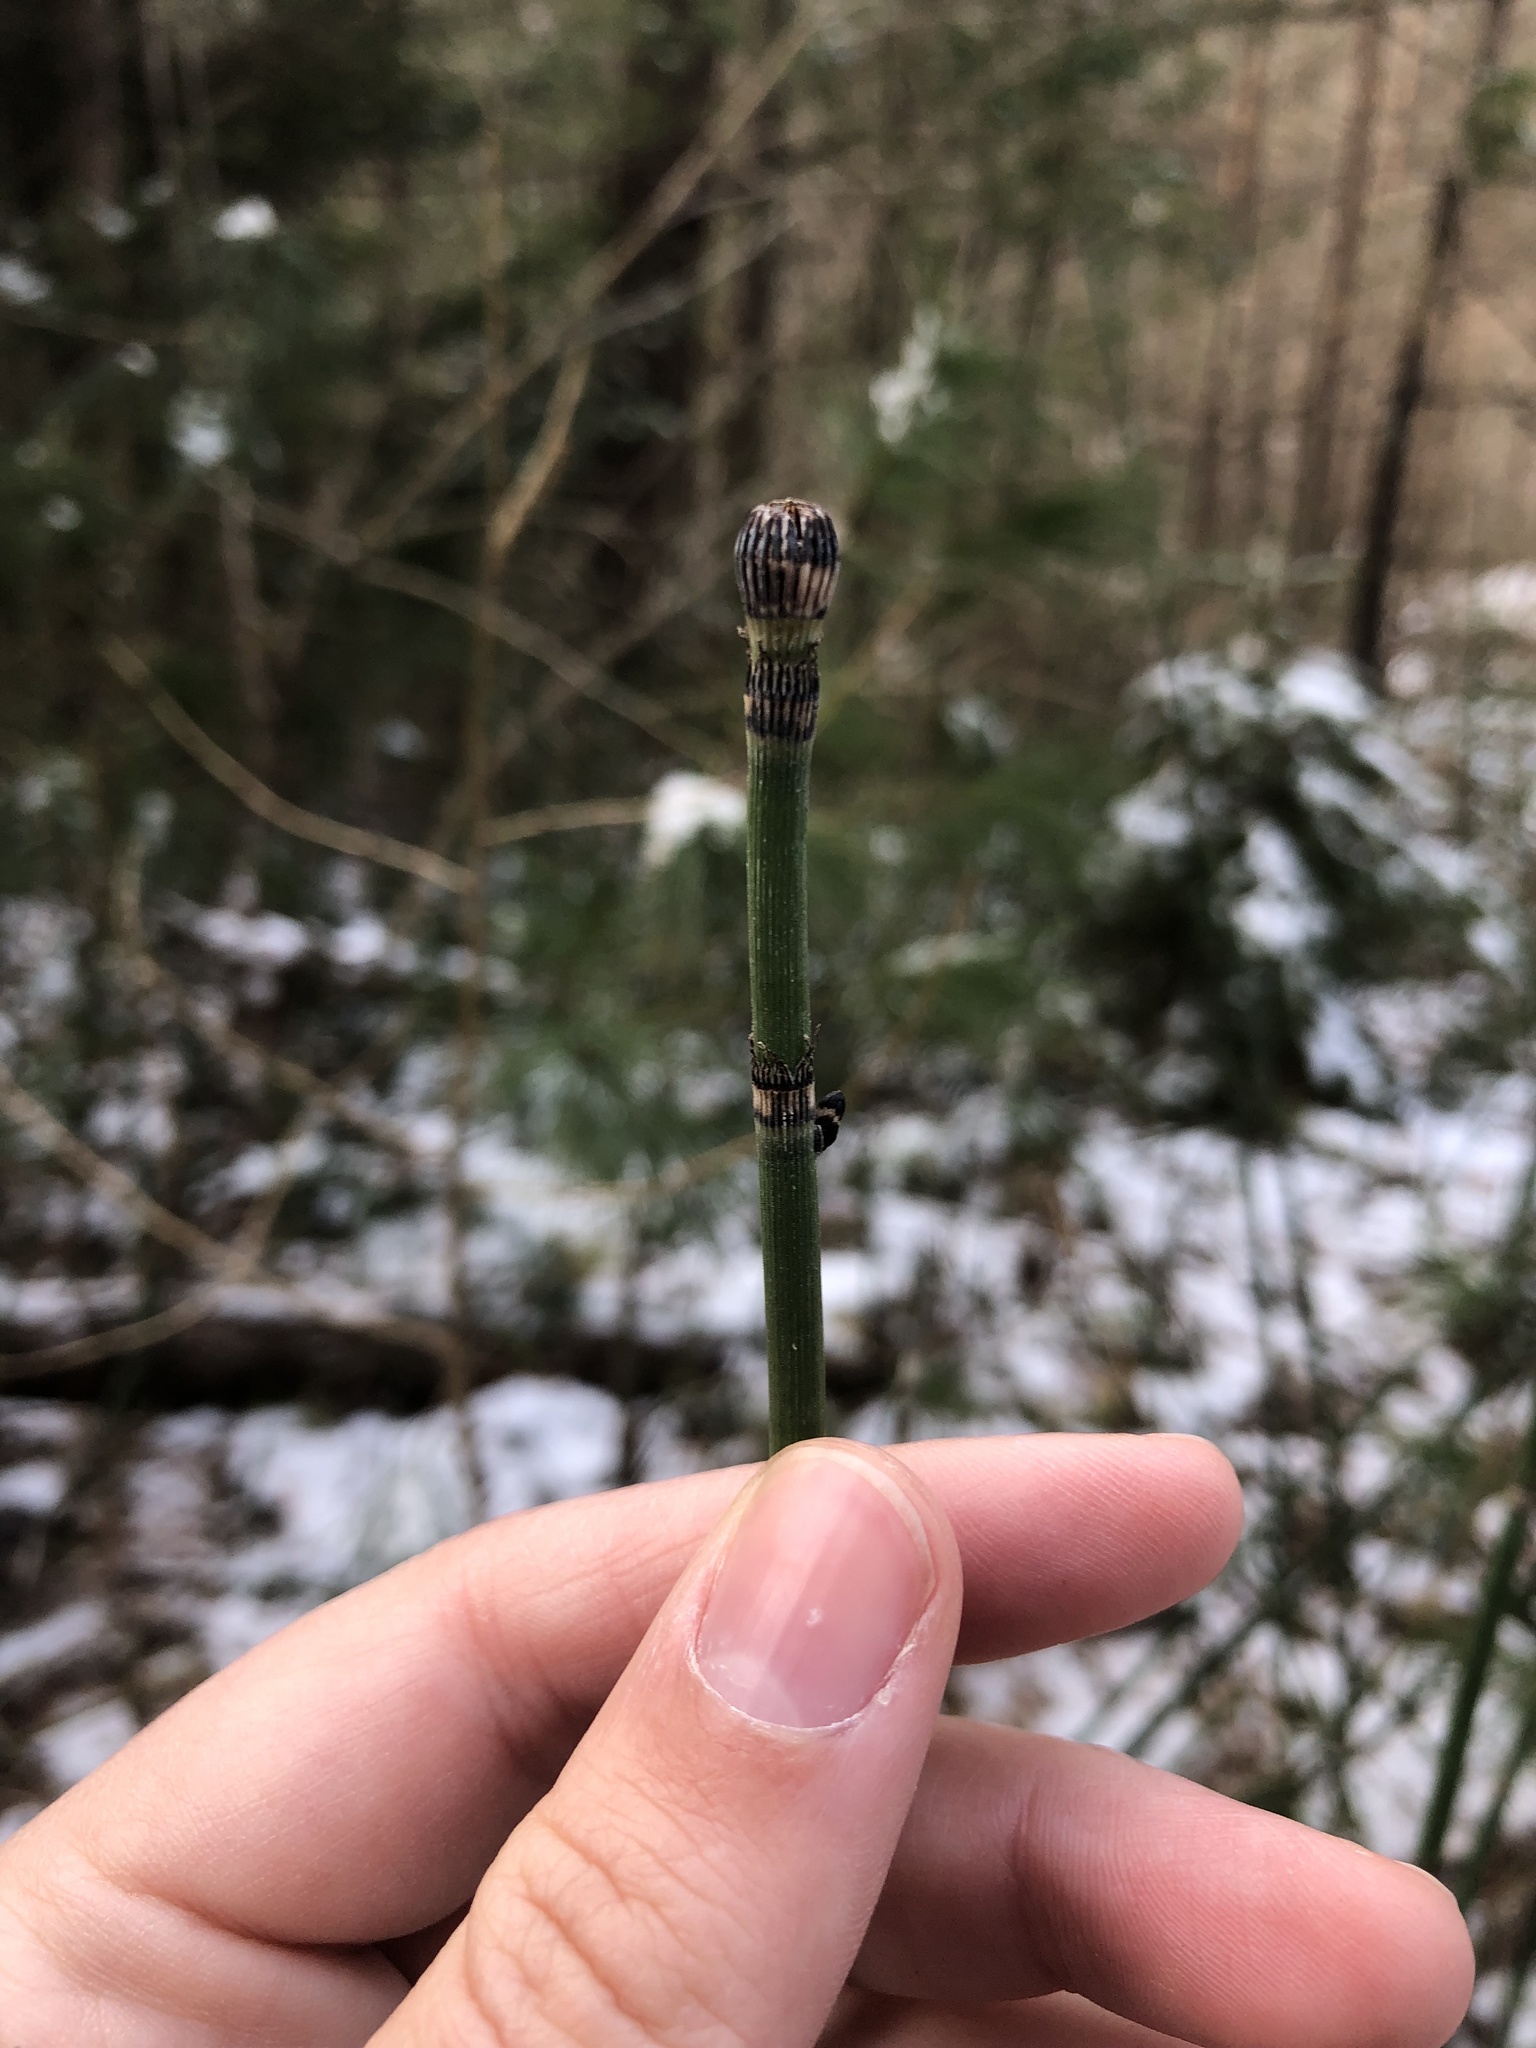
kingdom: Plantae
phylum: Tracheophyta
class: Polypodiopsida
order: Equisetales
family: Equisetaceae
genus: Equisetum
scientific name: Equisetum praealtum
